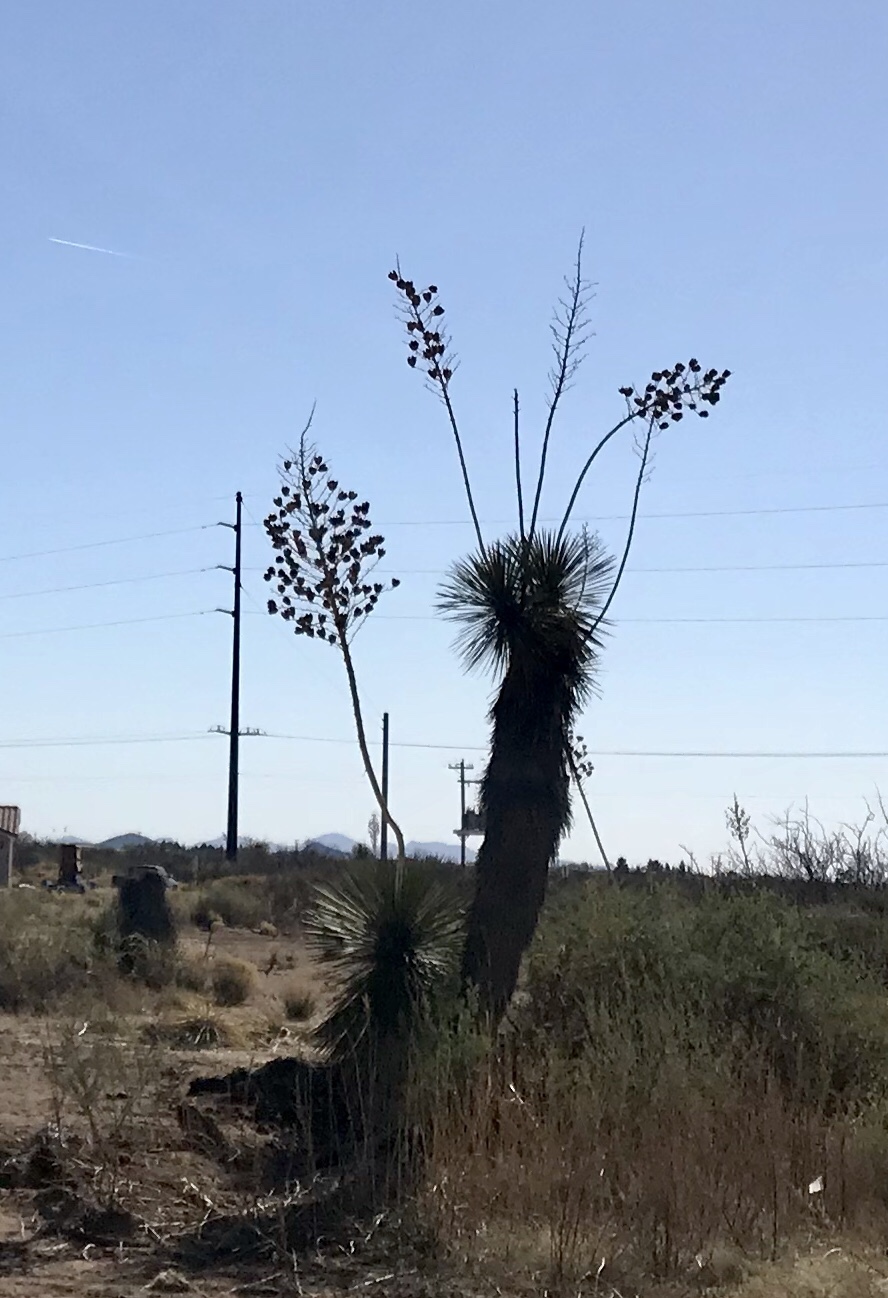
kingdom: Plantae
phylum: Tracheophyta
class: Liliopsida
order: Asparagales
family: Asparagaceae
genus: Yucca
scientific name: Yucca elata
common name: Palmella
